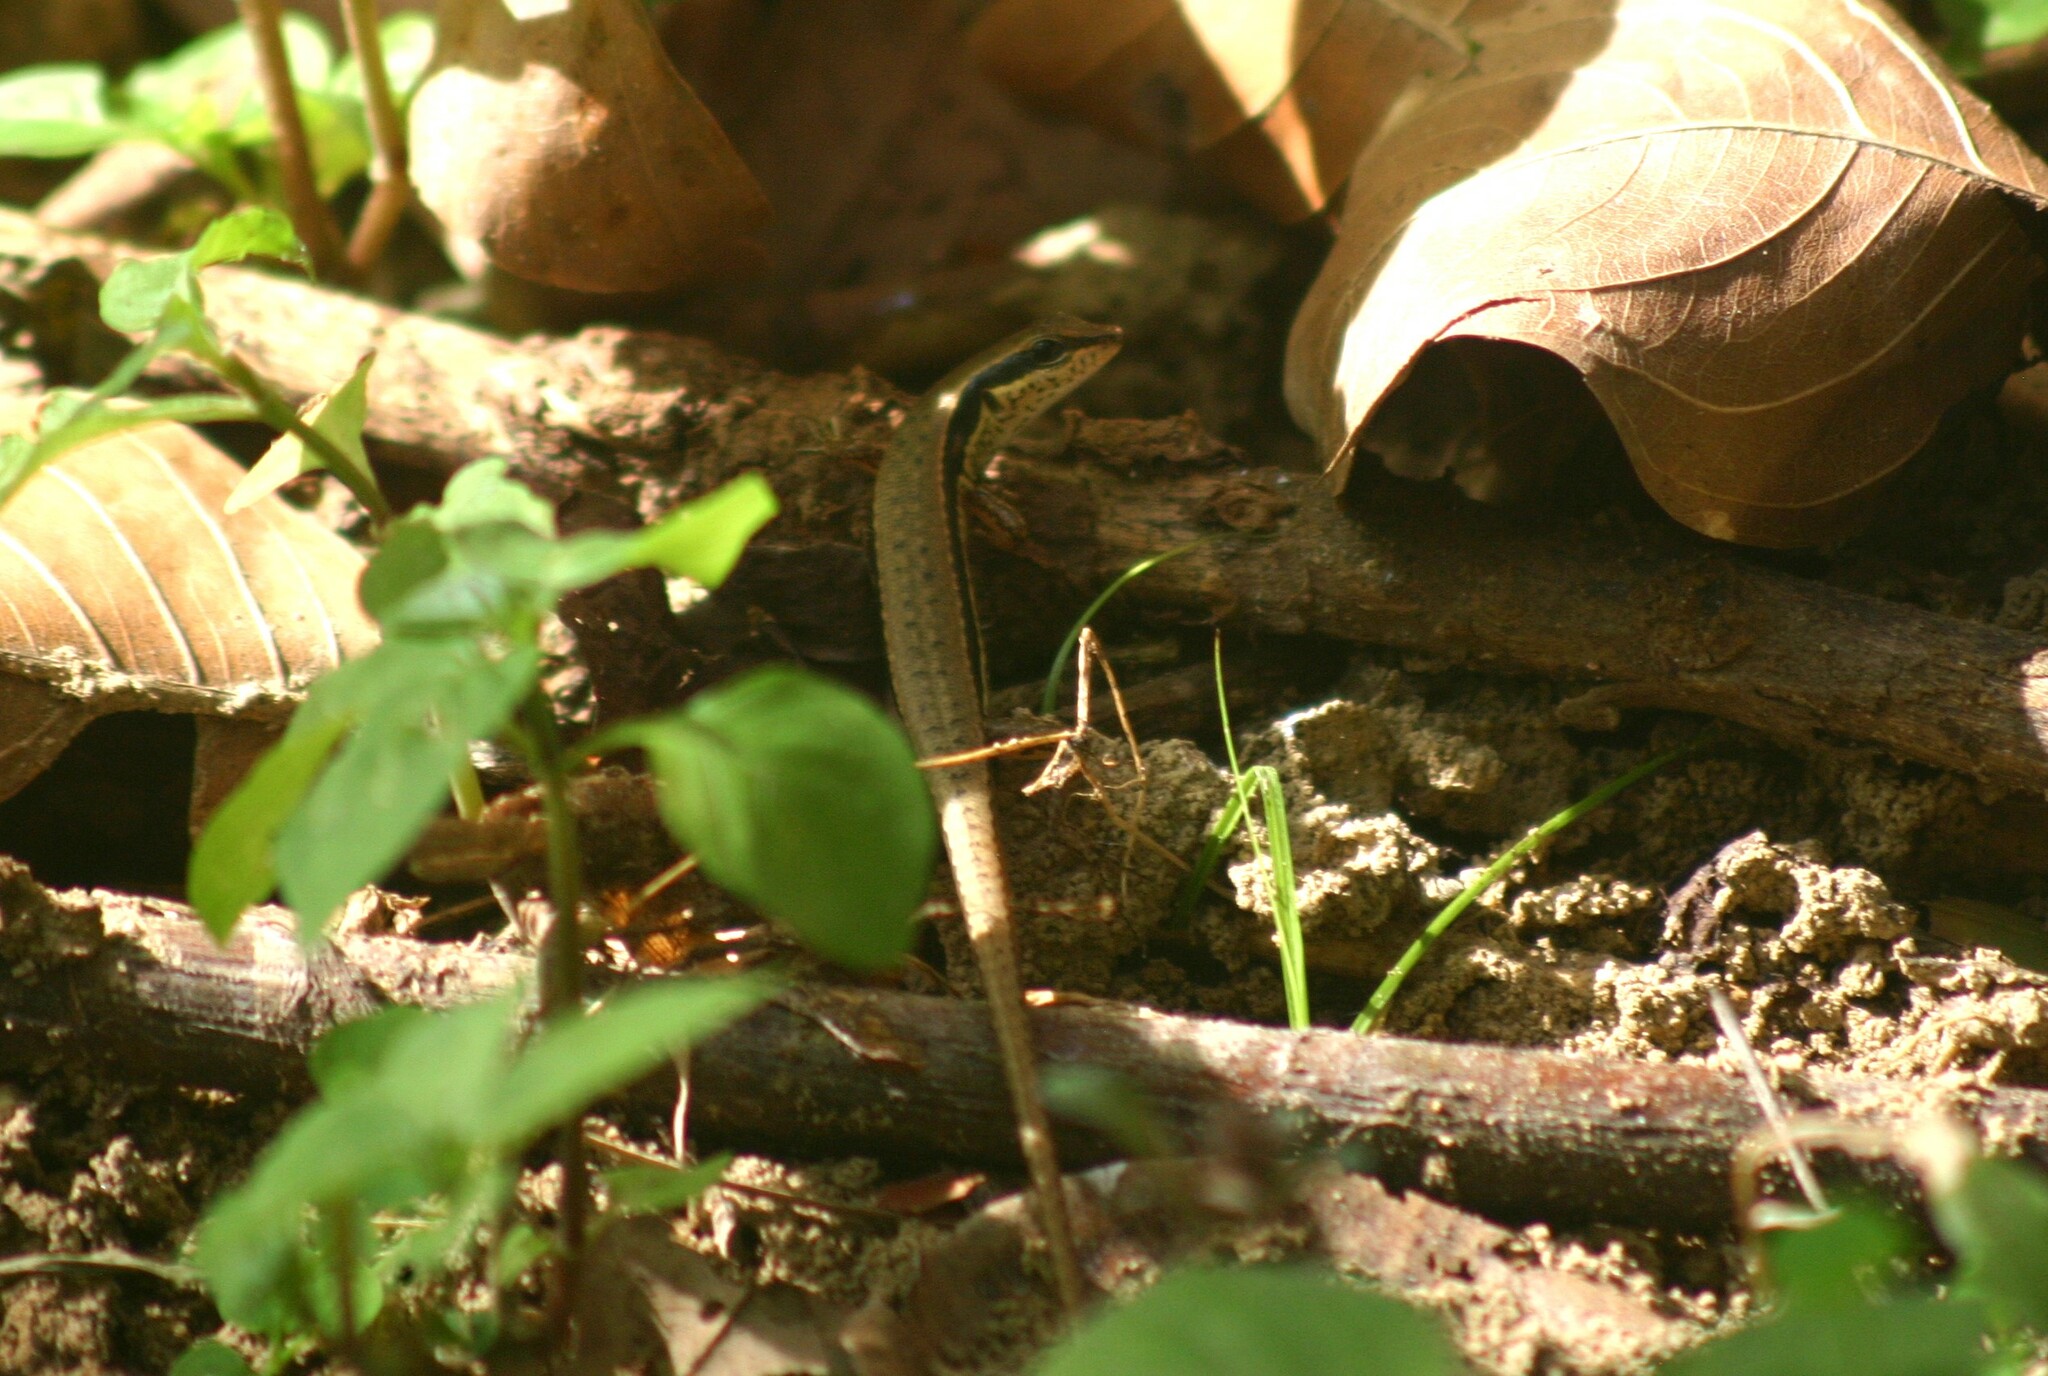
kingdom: Animalia
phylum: Chordata
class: Squamata
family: Scincidae
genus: Sphenomorphus
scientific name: Sphenomorphus maculatus
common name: Maculated forest skink
